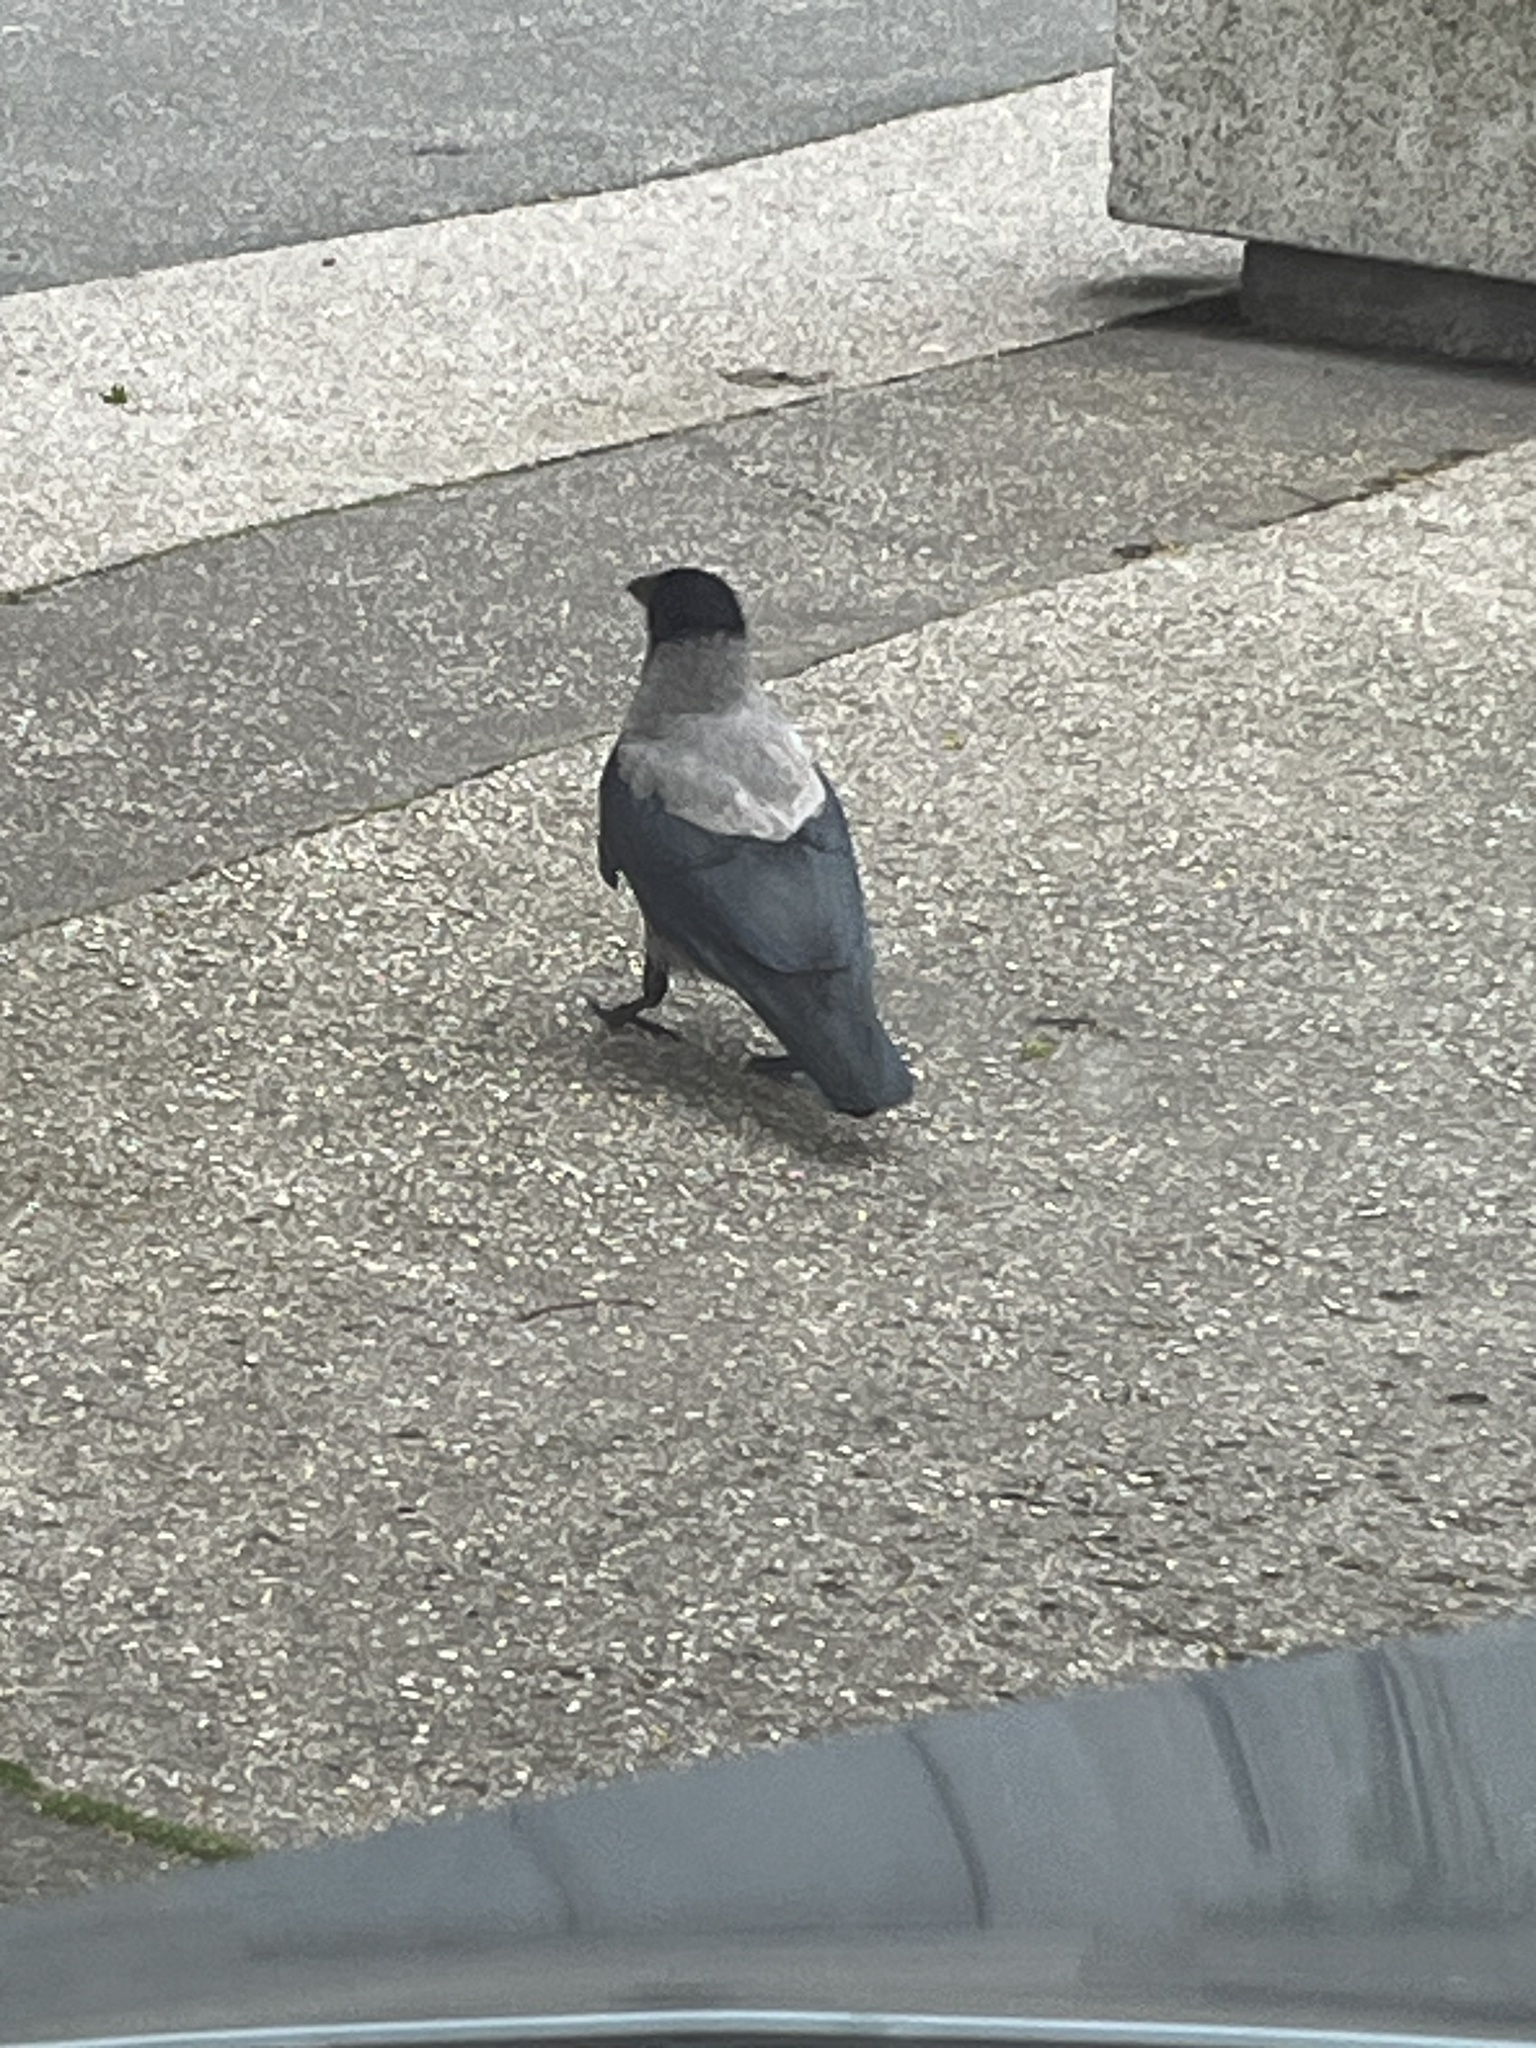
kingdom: Animalia
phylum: Chordata
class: Aves
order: Passeriformes
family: Corvidae
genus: Corvus
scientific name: Corvus cornix
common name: Hooded crow
